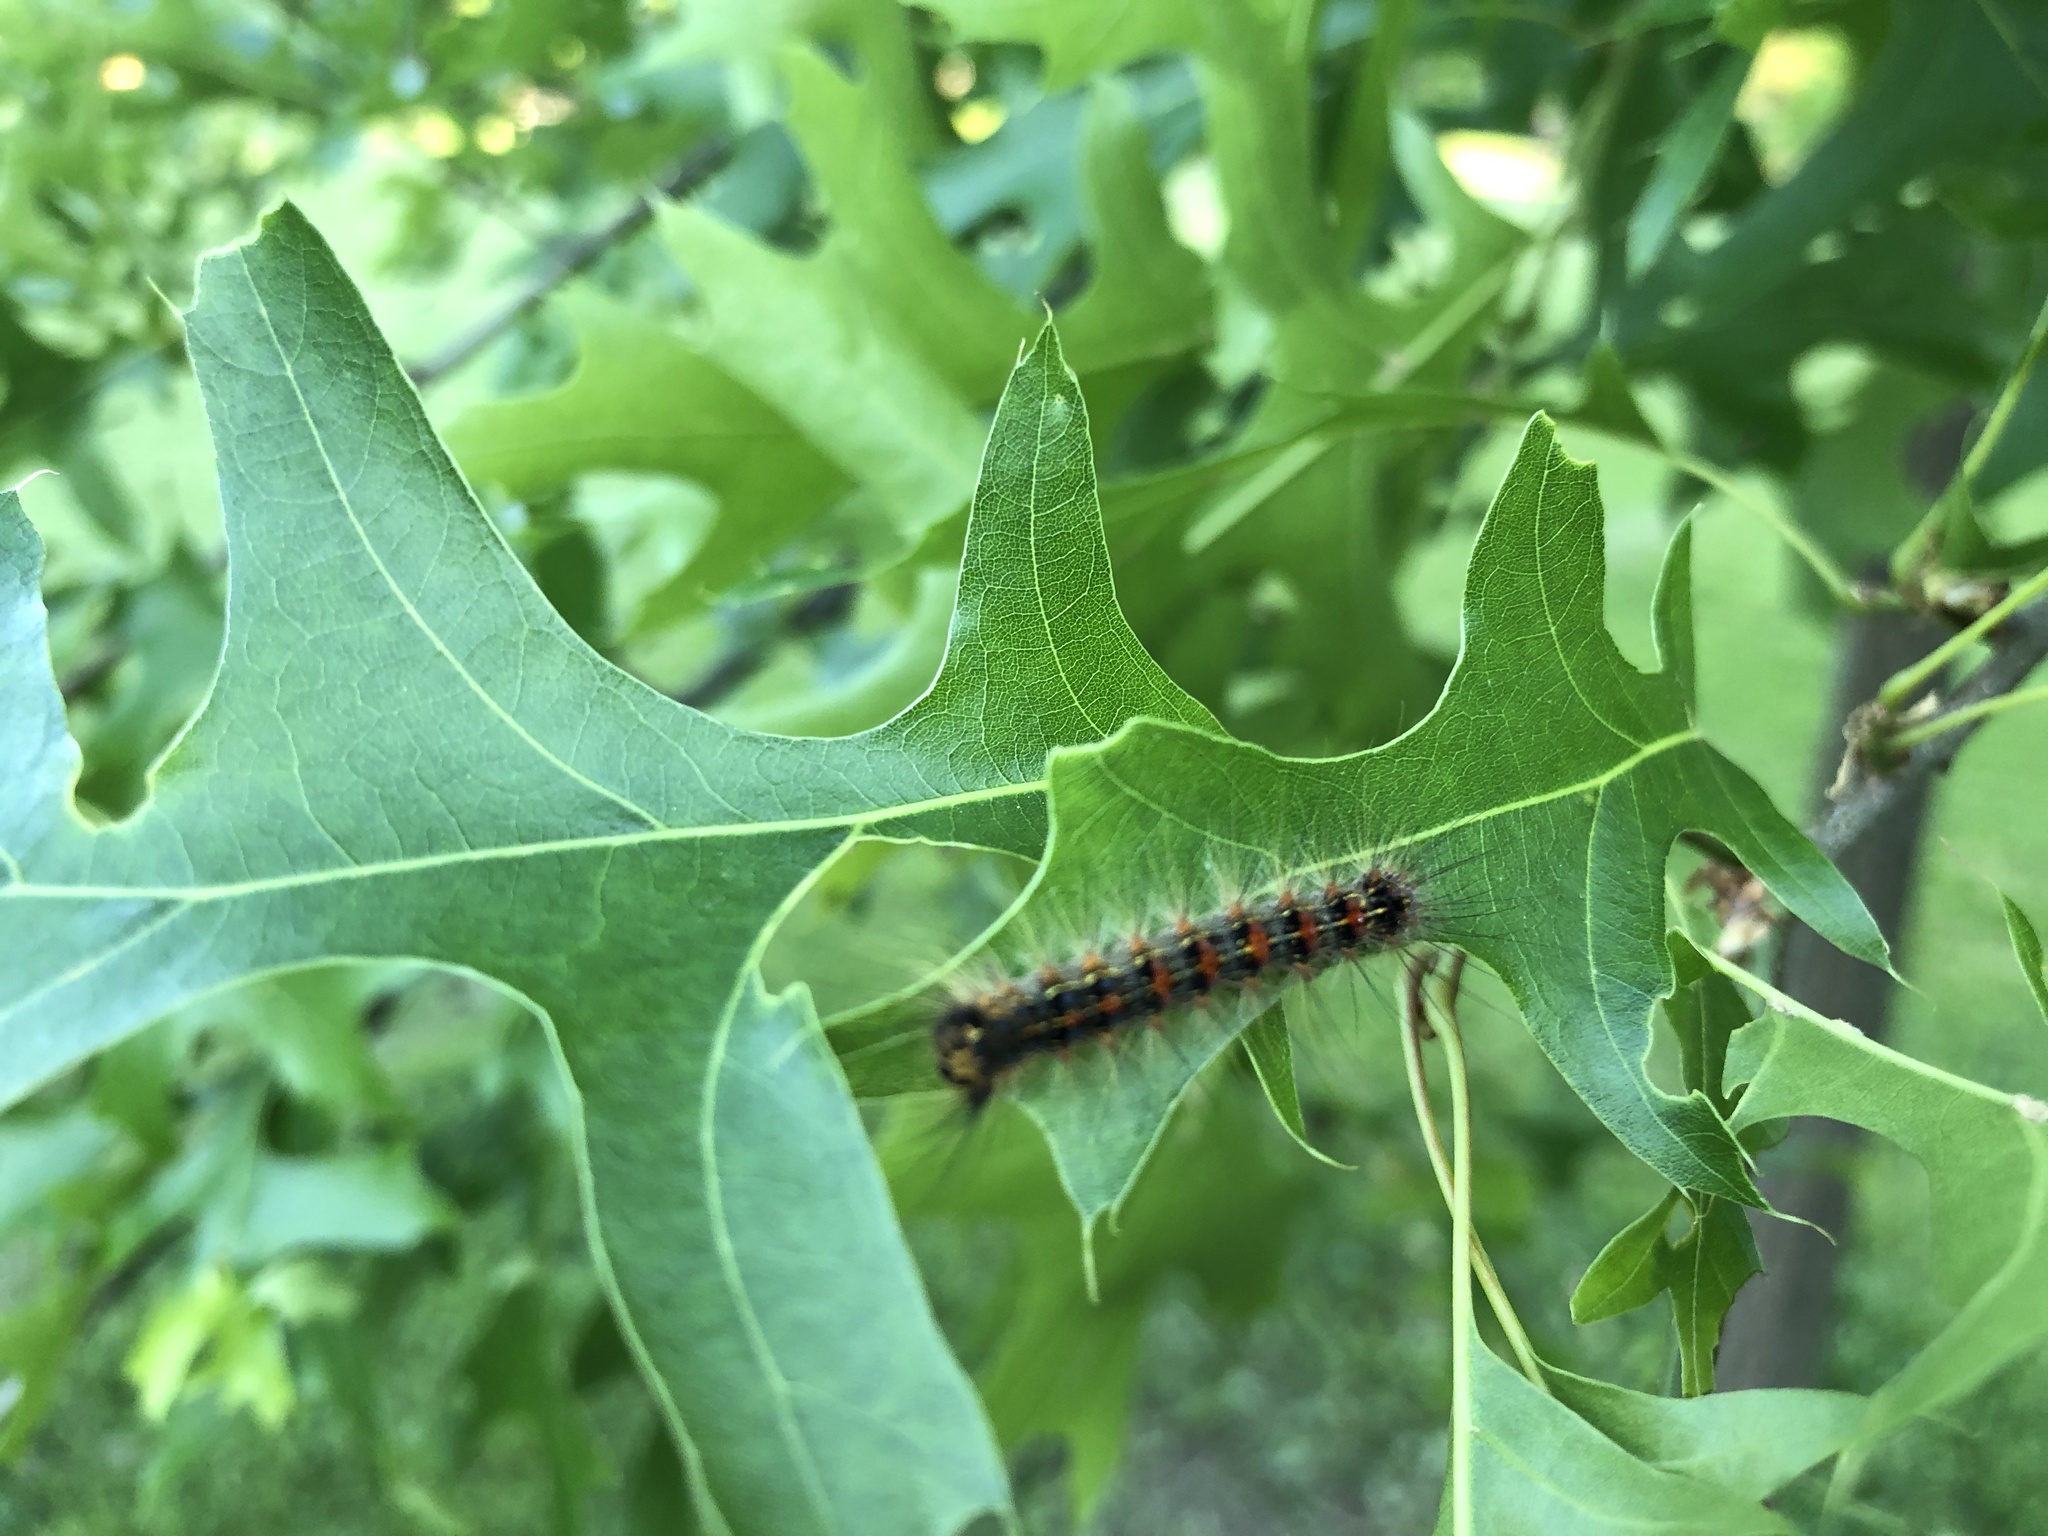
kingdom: Animalia
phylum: Arthropoda
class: Insecta
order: Lepidoptera
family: Erebidae
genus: Lymantria
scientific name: Lymantria dispar
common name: Gypsy moth
